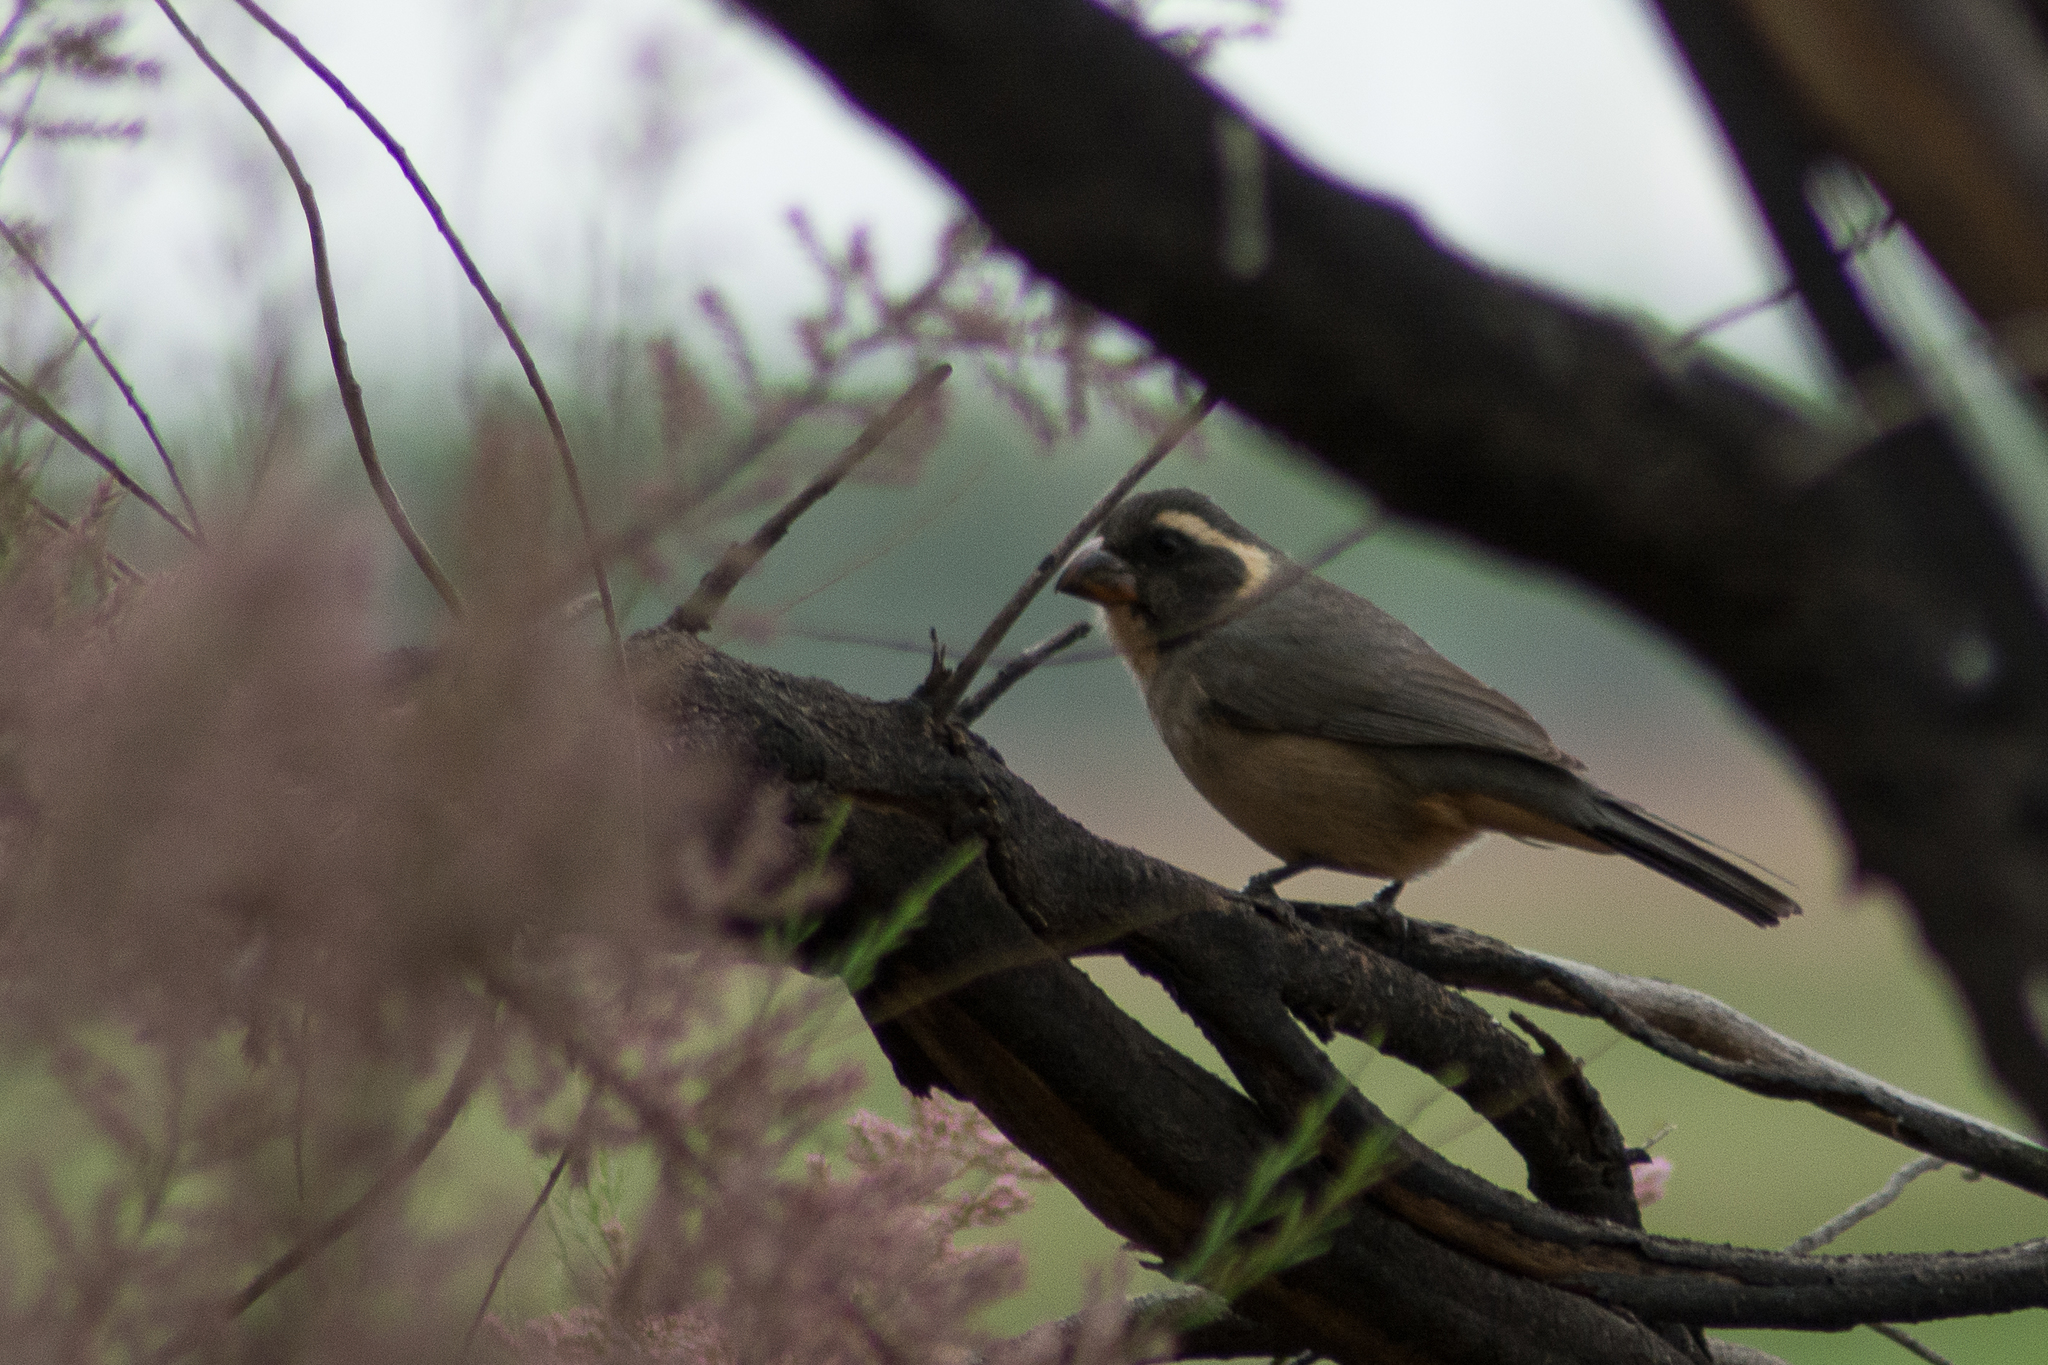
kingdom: Animalia
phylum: Chordata
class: Aves
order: Passeriformes
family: Thraupidae
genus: Saltator
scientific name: Saltator aurantiirostris
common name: Golden-billed saltator
